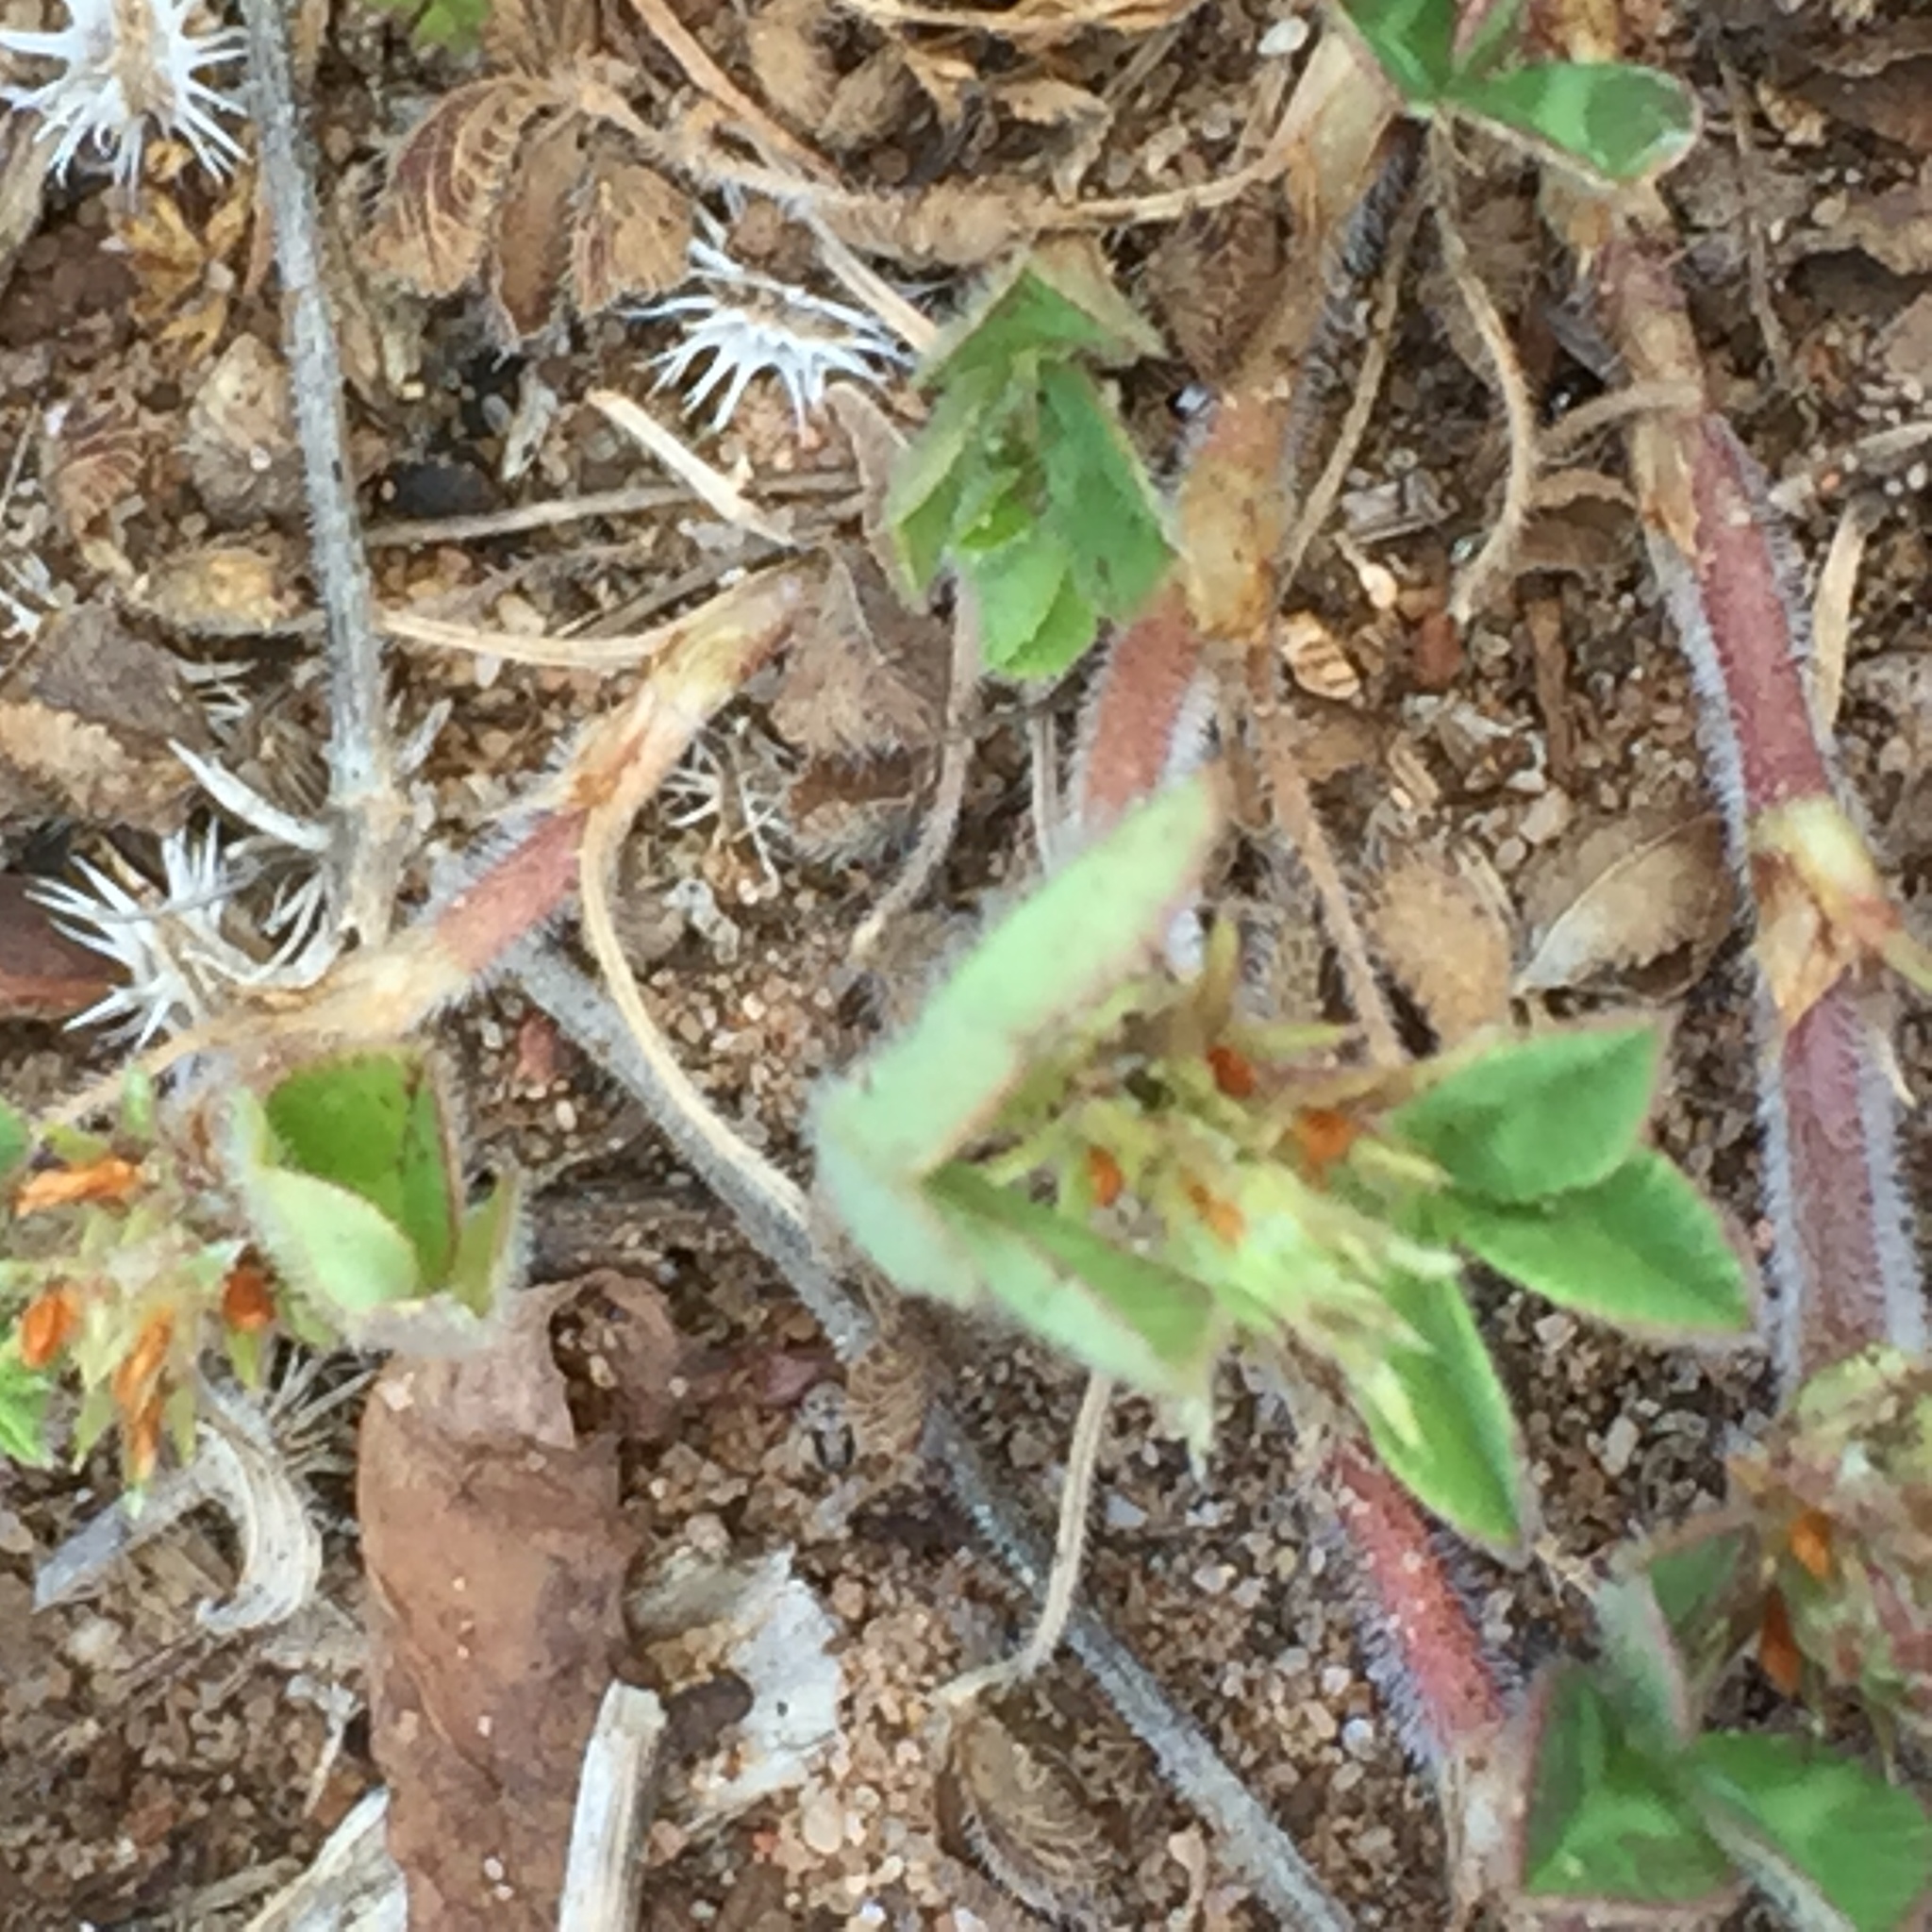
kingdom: Plantae
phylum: Tracheophyta
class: Magnoliopsida
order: Fabales
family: Fabaceae
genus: Trifolium
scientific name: Trifolium subterraneum
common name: Subterranean clover
